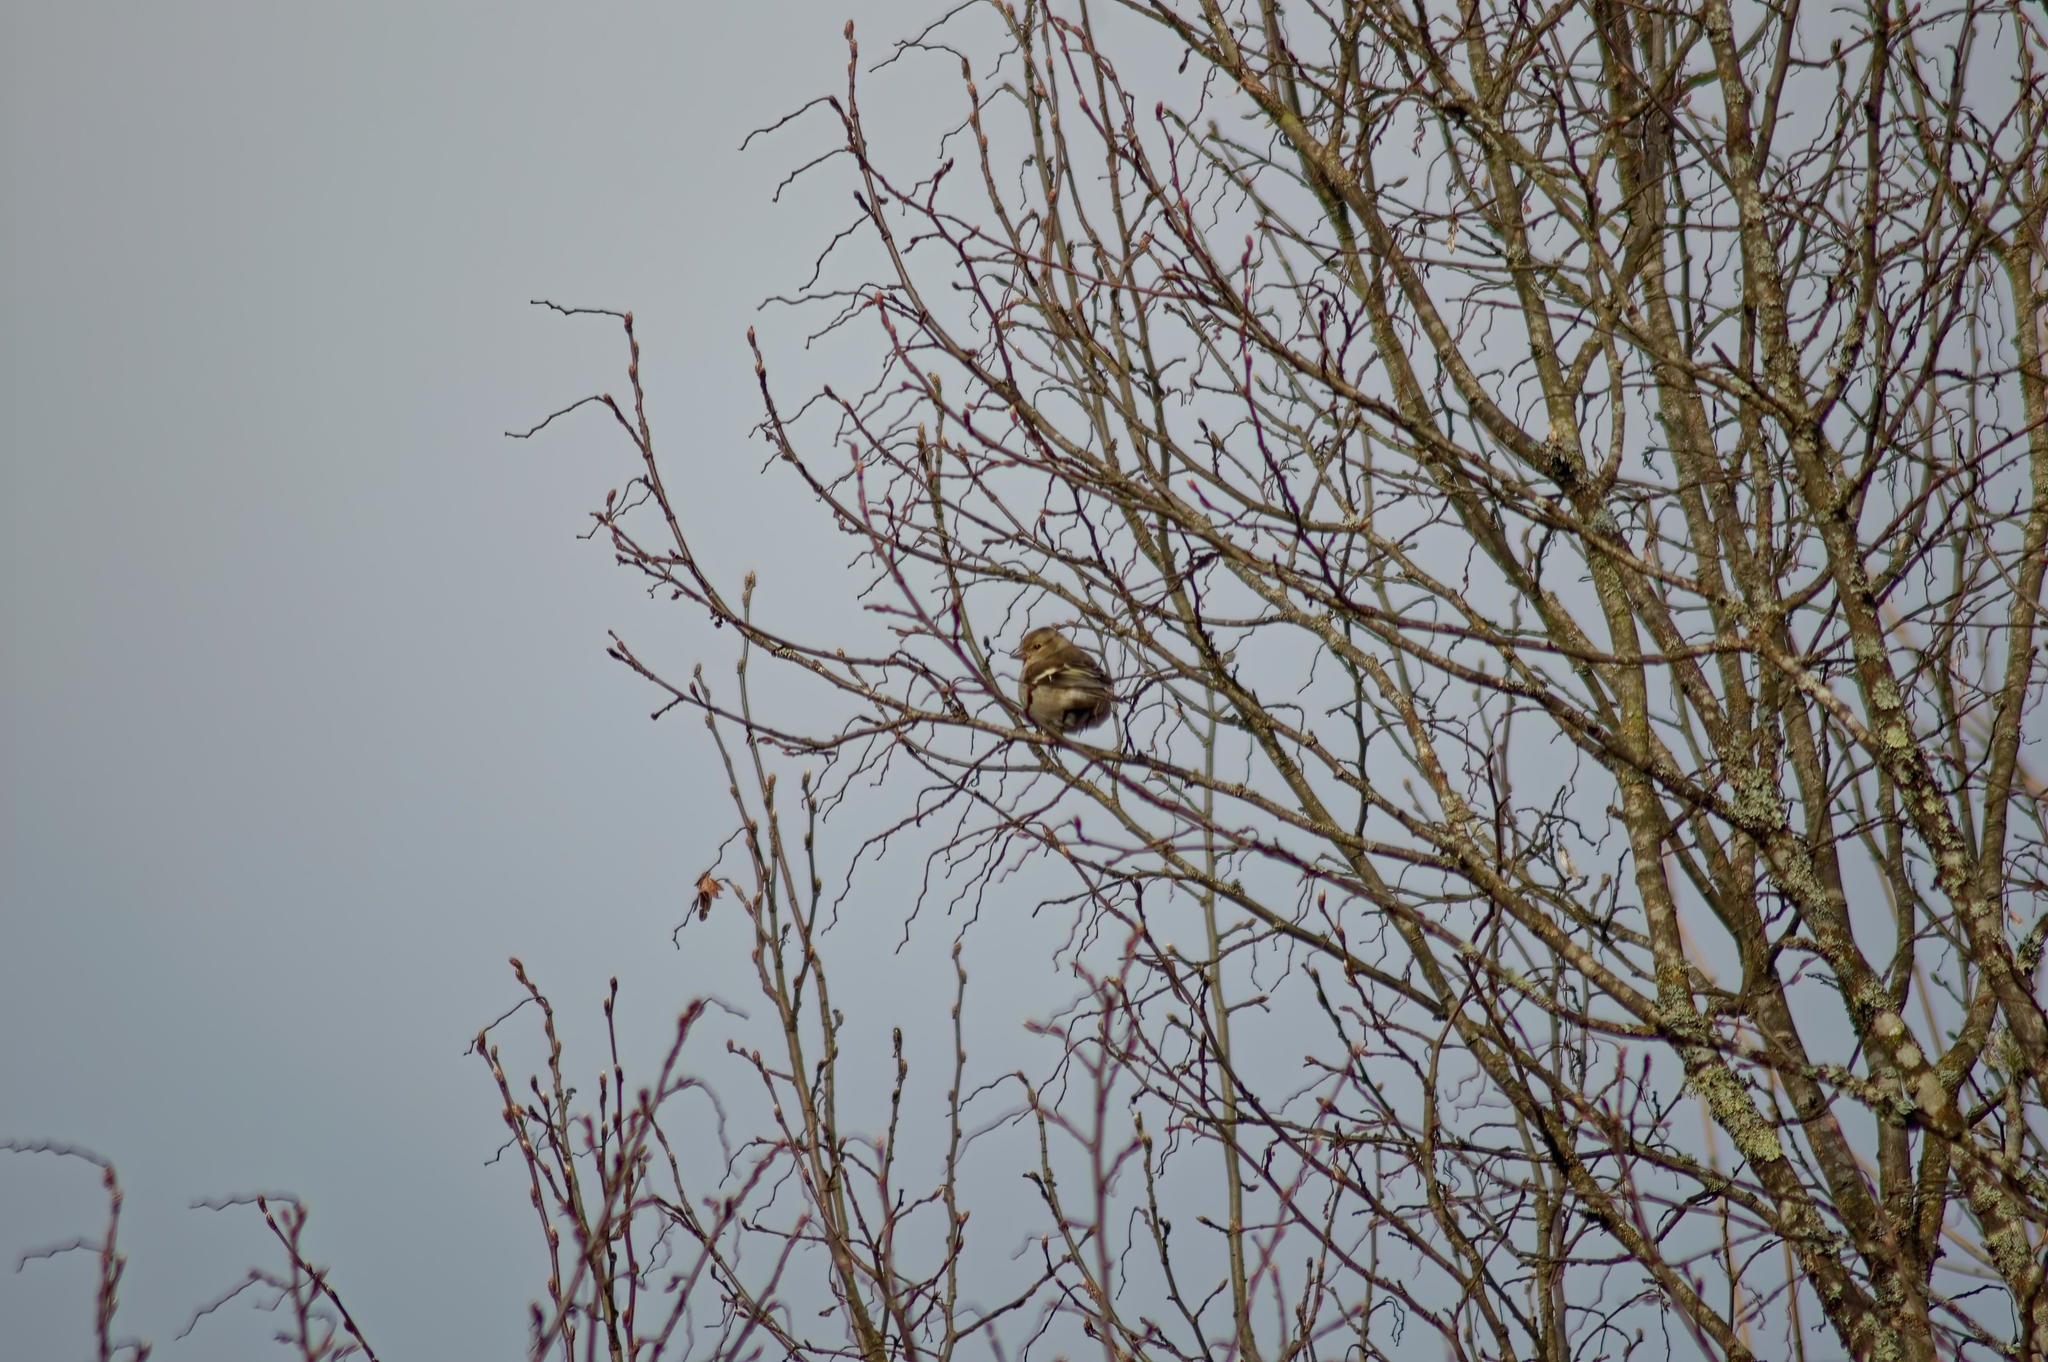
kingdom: Animalia
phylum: Chordata
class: Aves
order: Passeriformes
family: Fringillidae
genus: Fringilla
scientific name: Fringilla coelebs
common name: Common chaffinch
